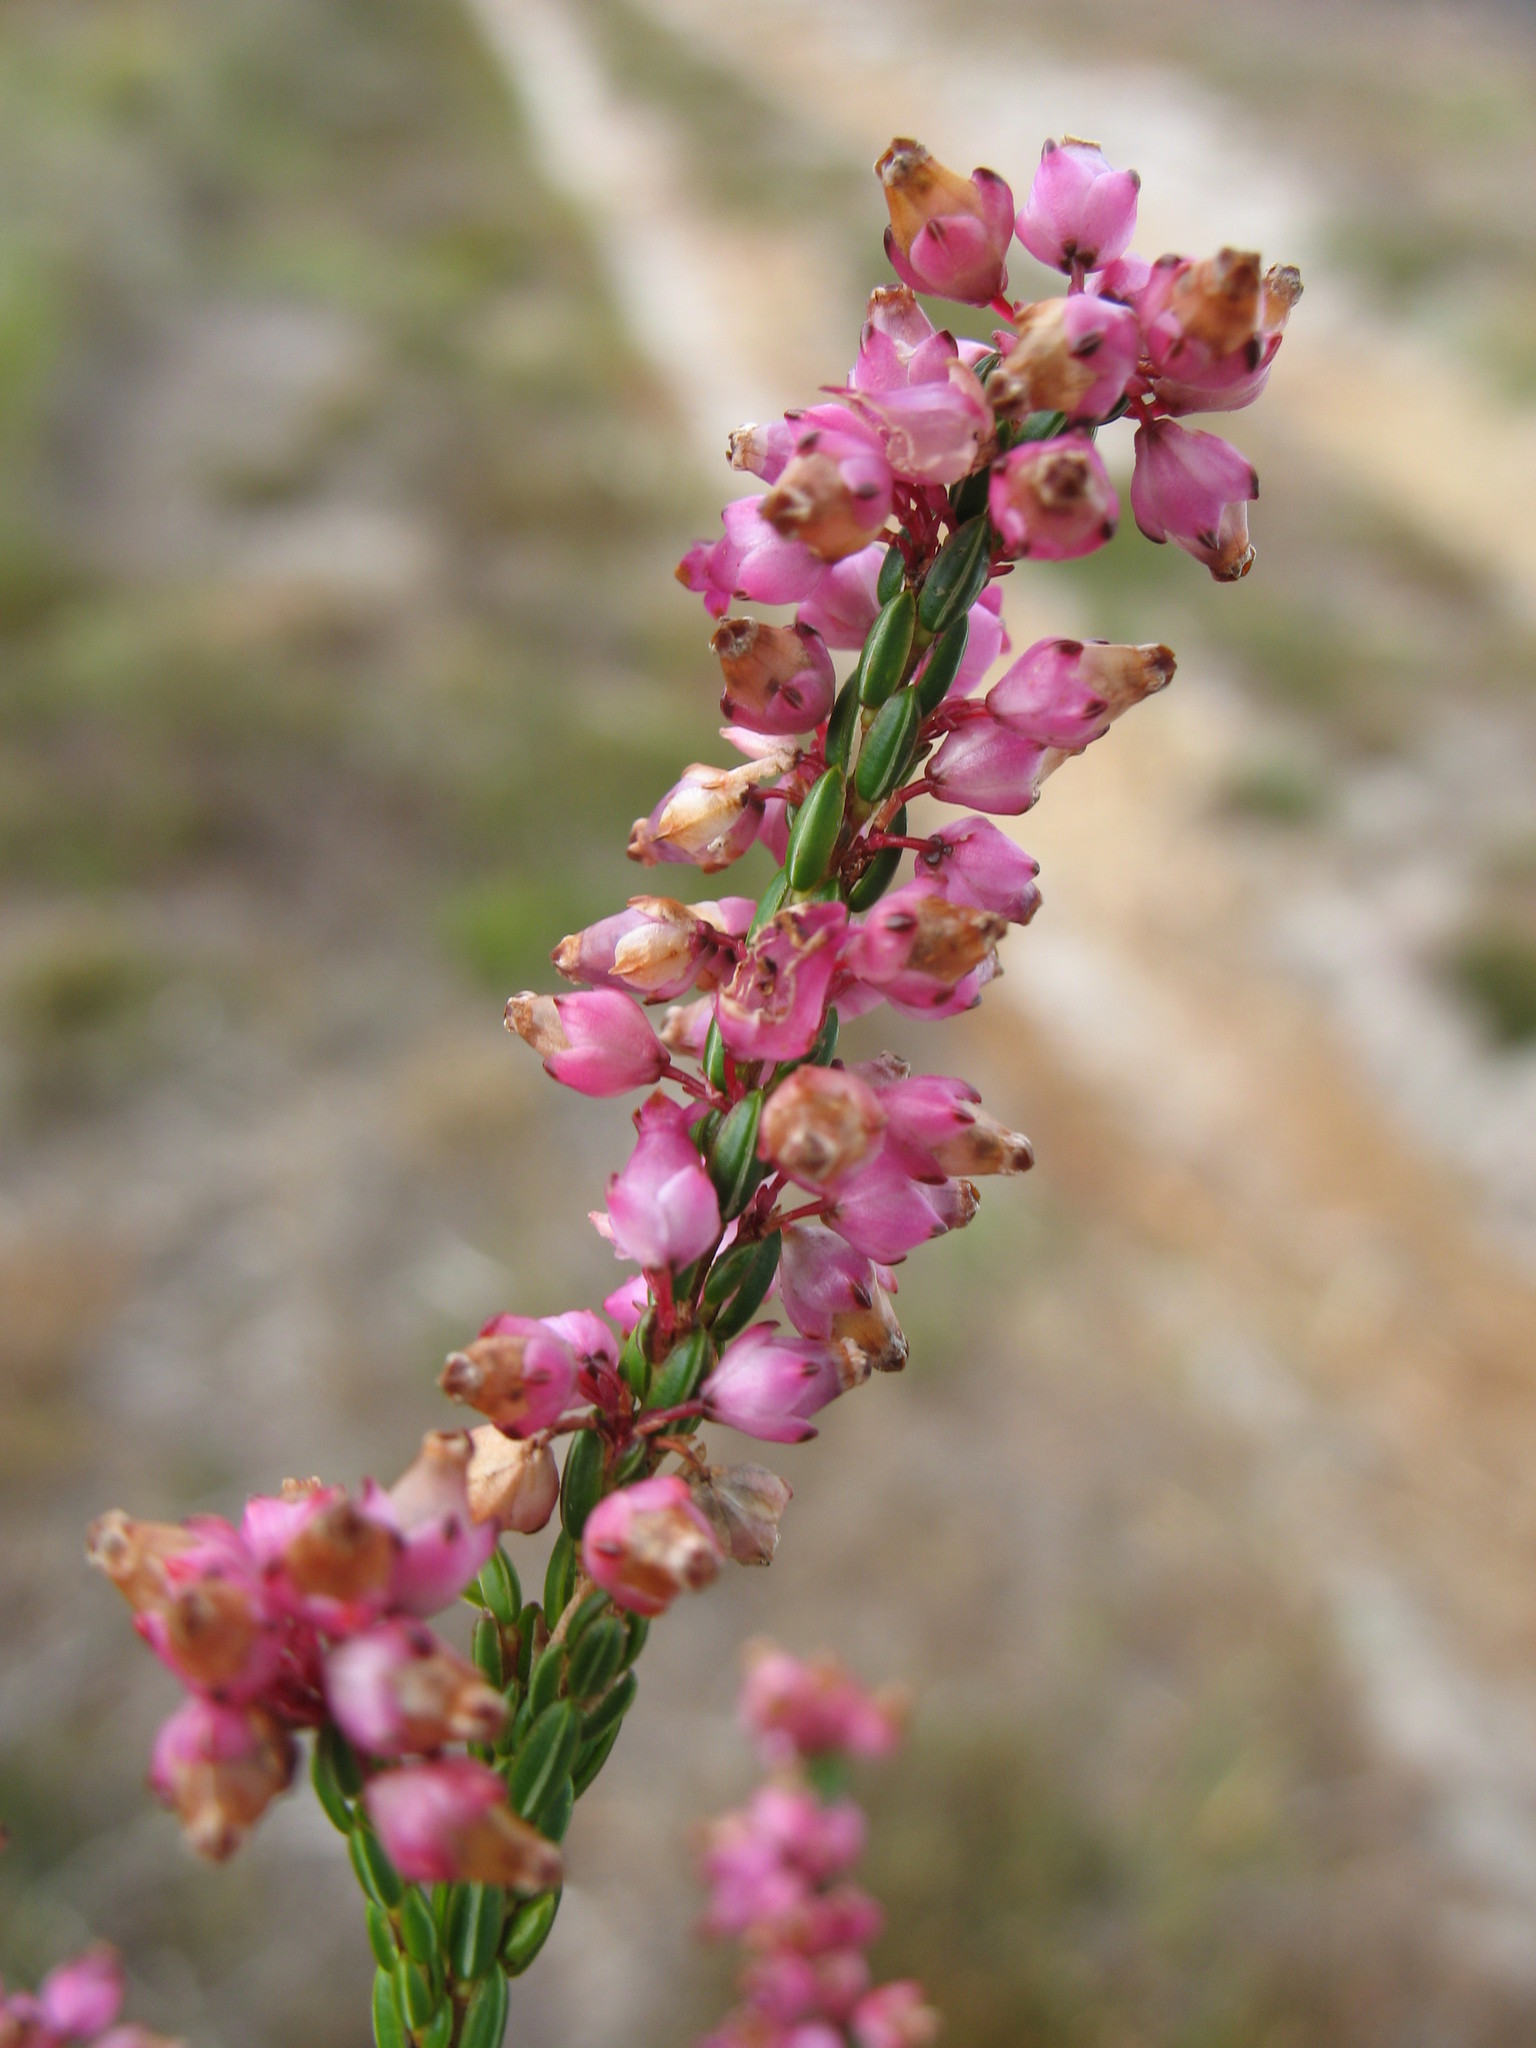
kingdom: Plantae
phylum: Tracheophyta
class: Magnoliopsida
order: Ericales
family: Ericaceae
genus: Erica
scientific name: Erica rhopalantha
